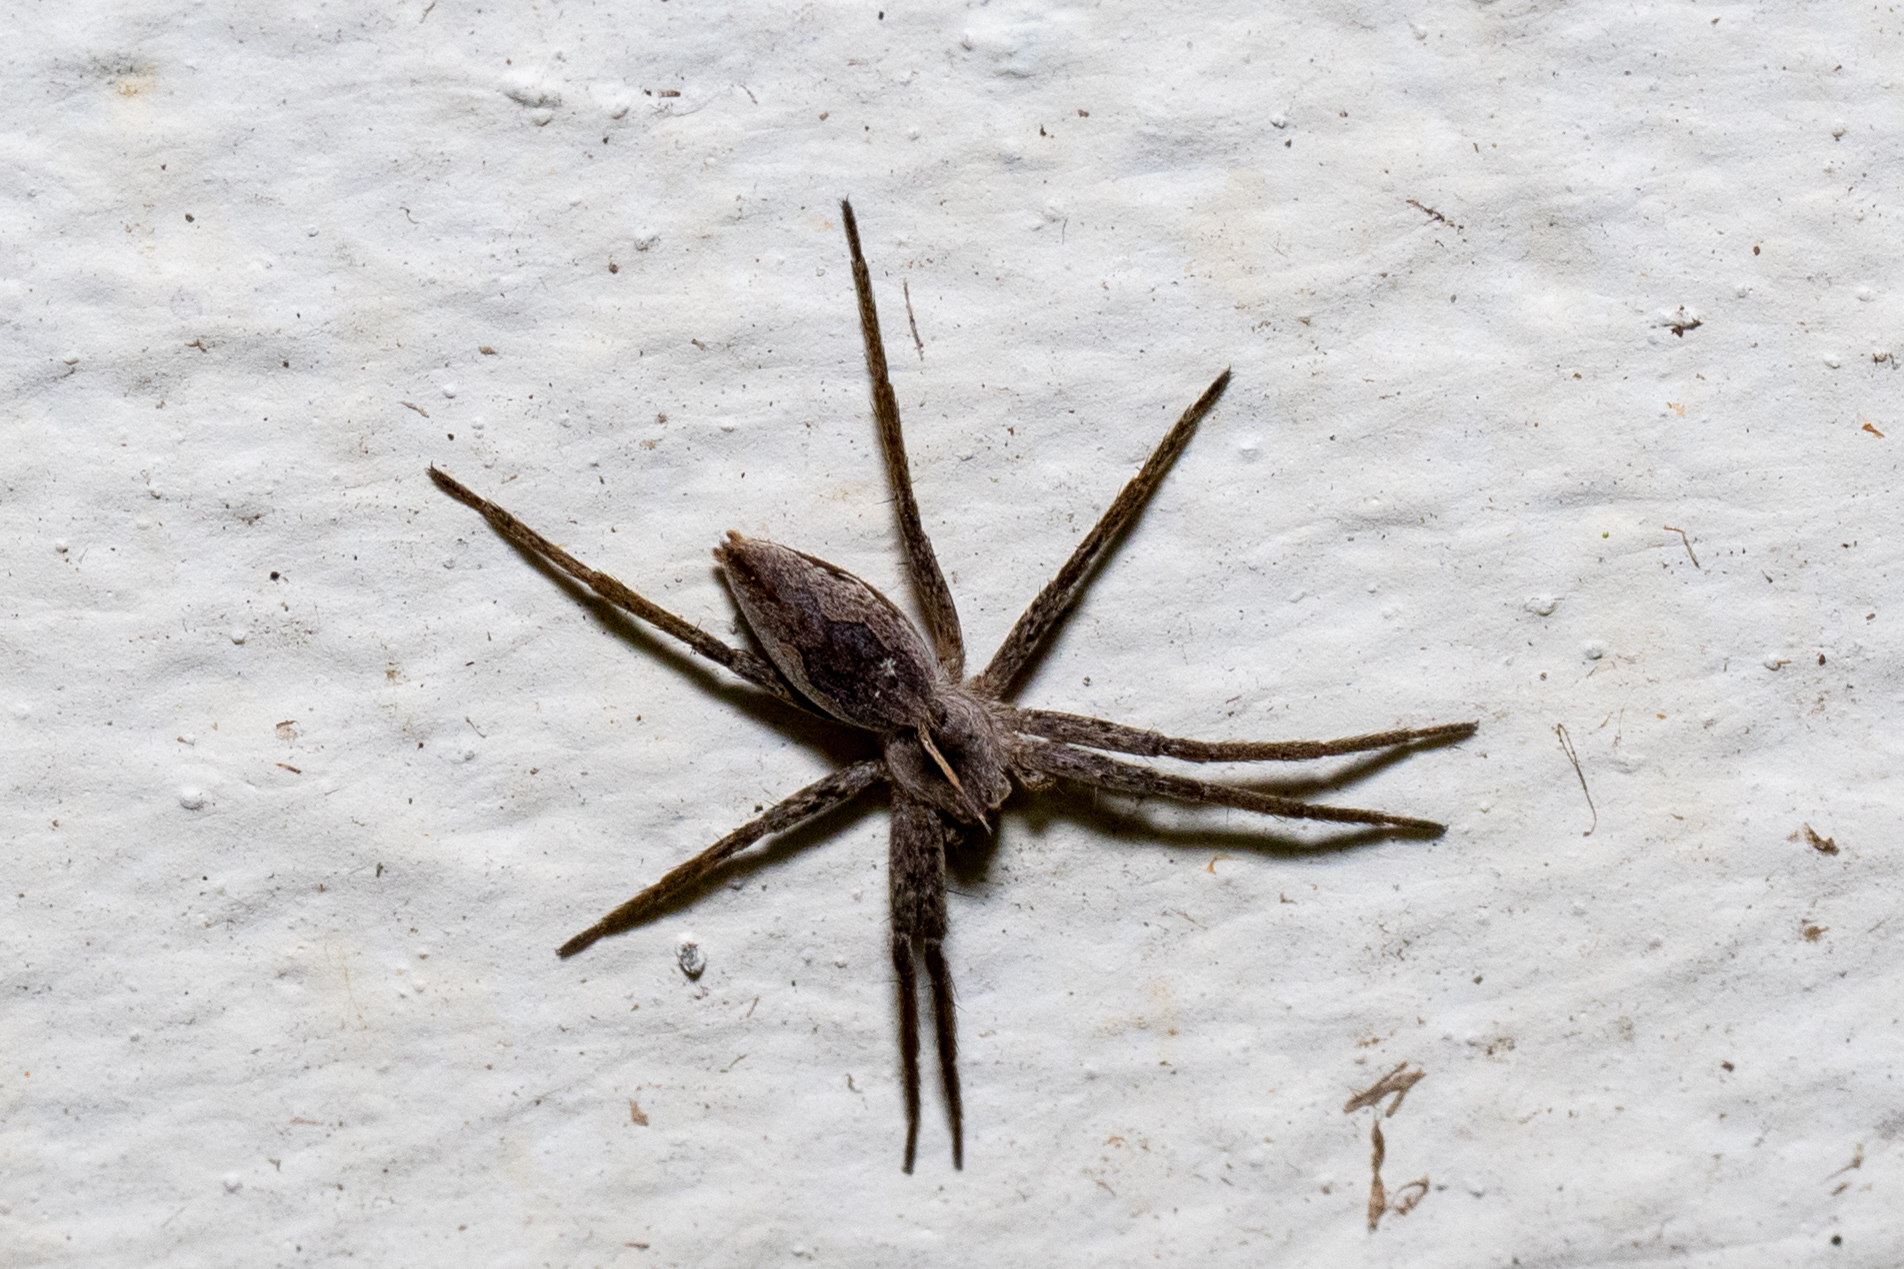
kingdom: Animalia
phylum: Arthropoda
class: Arachnida
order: Araneae
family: Pisauridae
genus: Pisaura
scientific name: Pisaura mirabilis
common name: Tent spider
